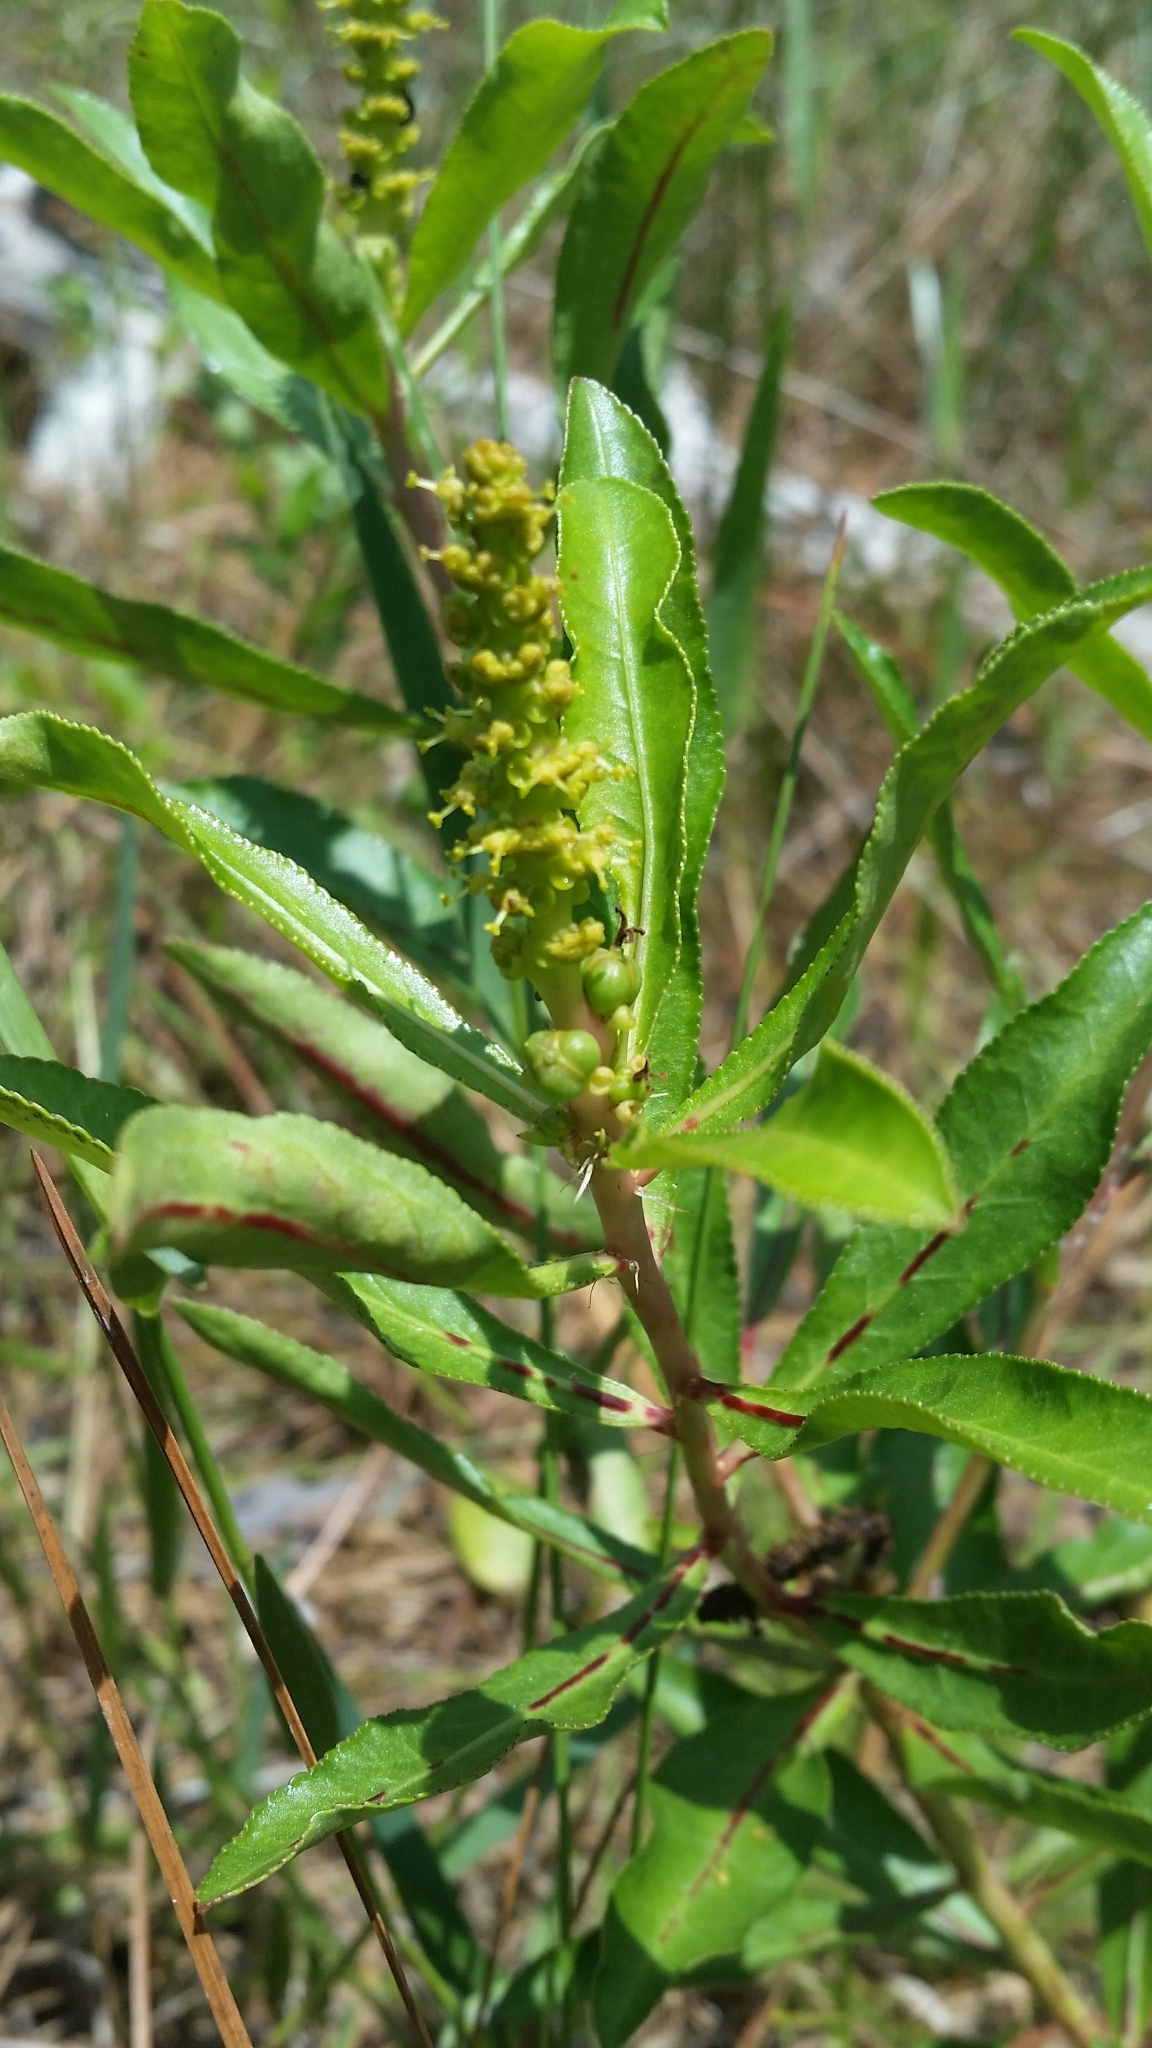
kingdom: Plantae
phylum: Tracheophyta
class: Magnoliopsida
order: Malpighiales
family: Euphorbiaceae
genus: Stillingia
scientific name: Stillingia sylvatica
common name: Queen's-delight
